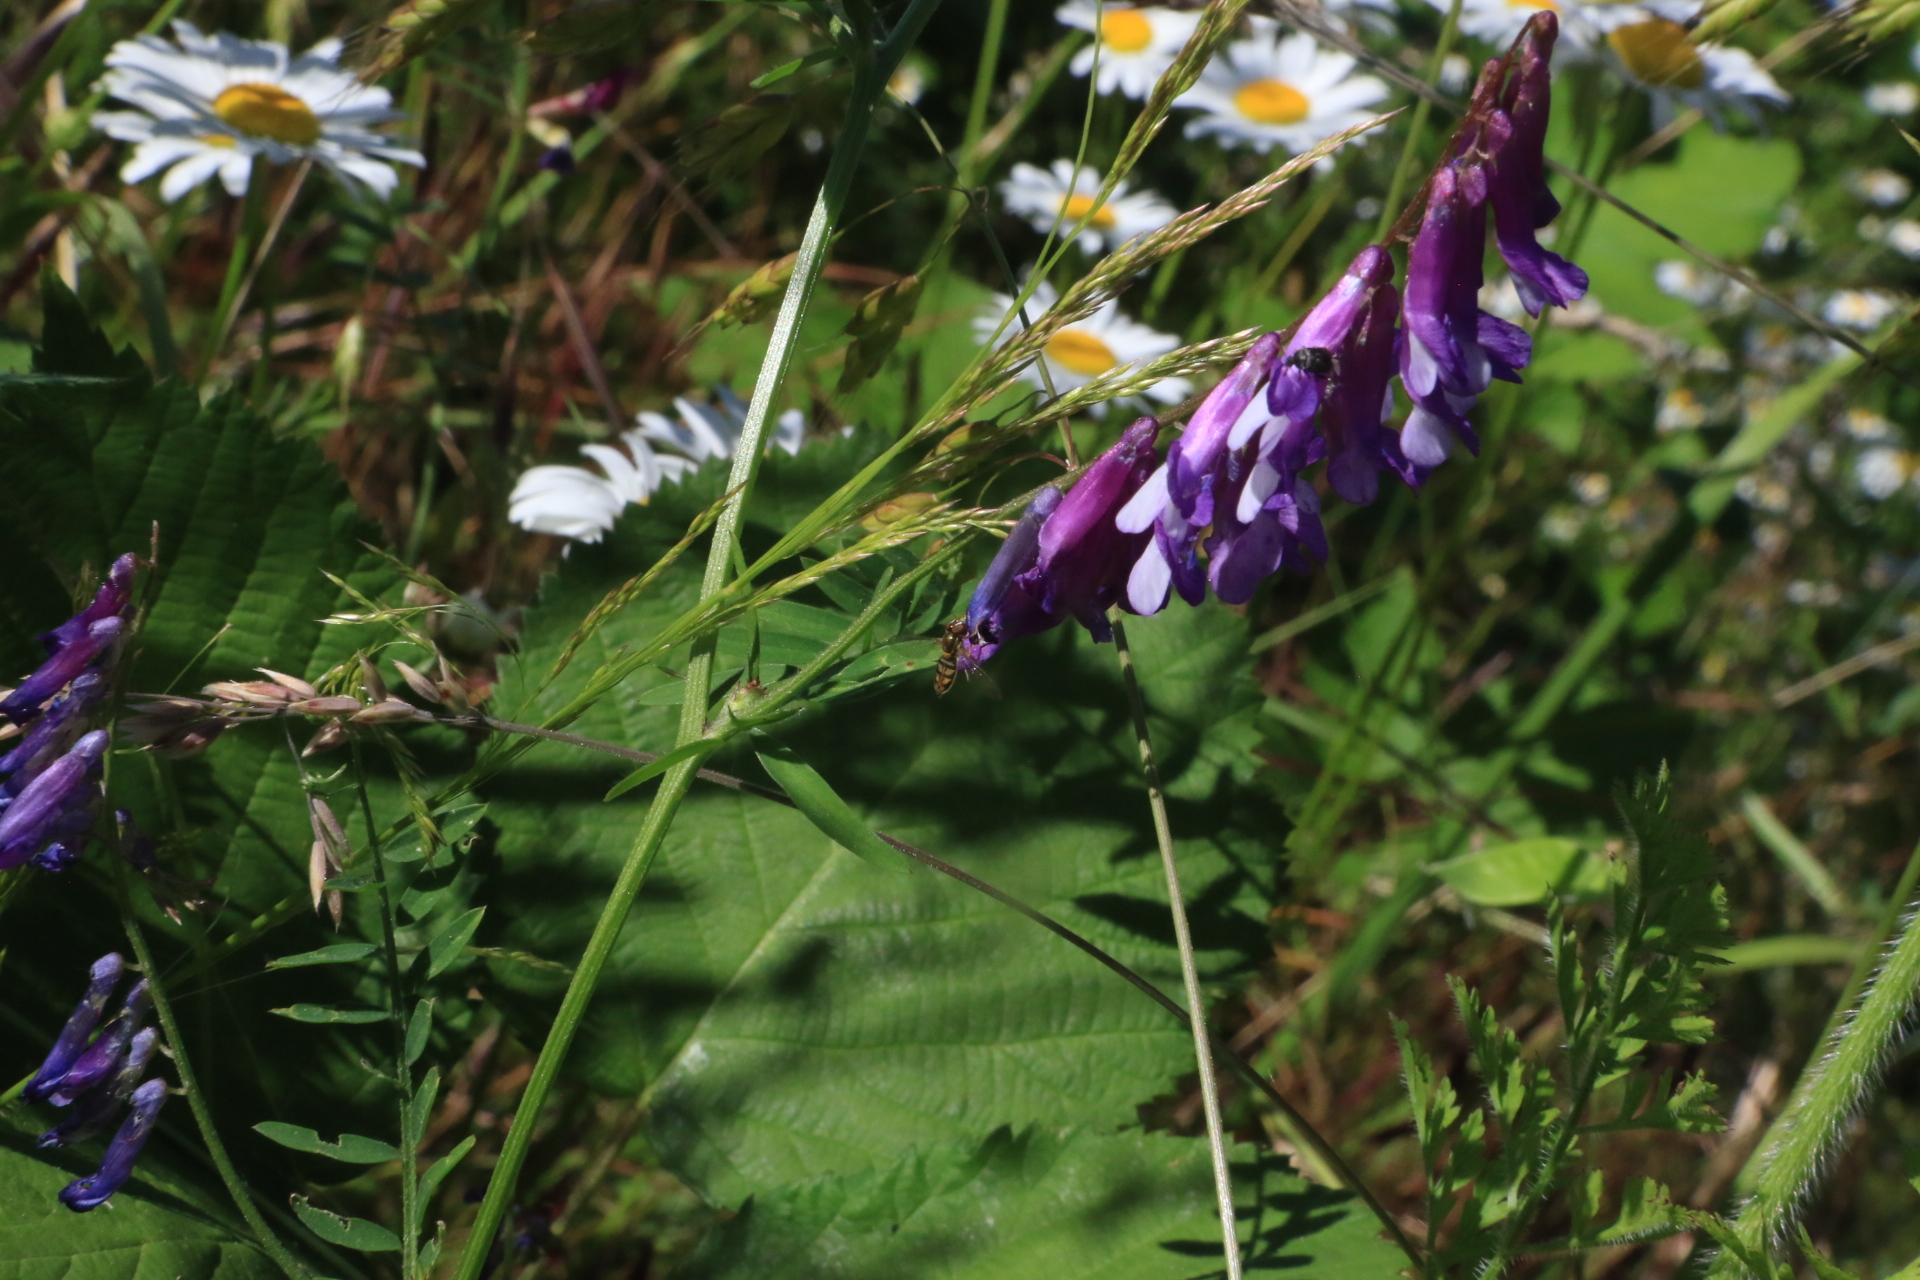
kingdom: Animalia
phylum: Arthropoda
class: Insecta
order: Diptera
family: Syrphidae
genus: Toxomerus
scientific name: Toxomerus marginatus
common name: Syrphid fly
